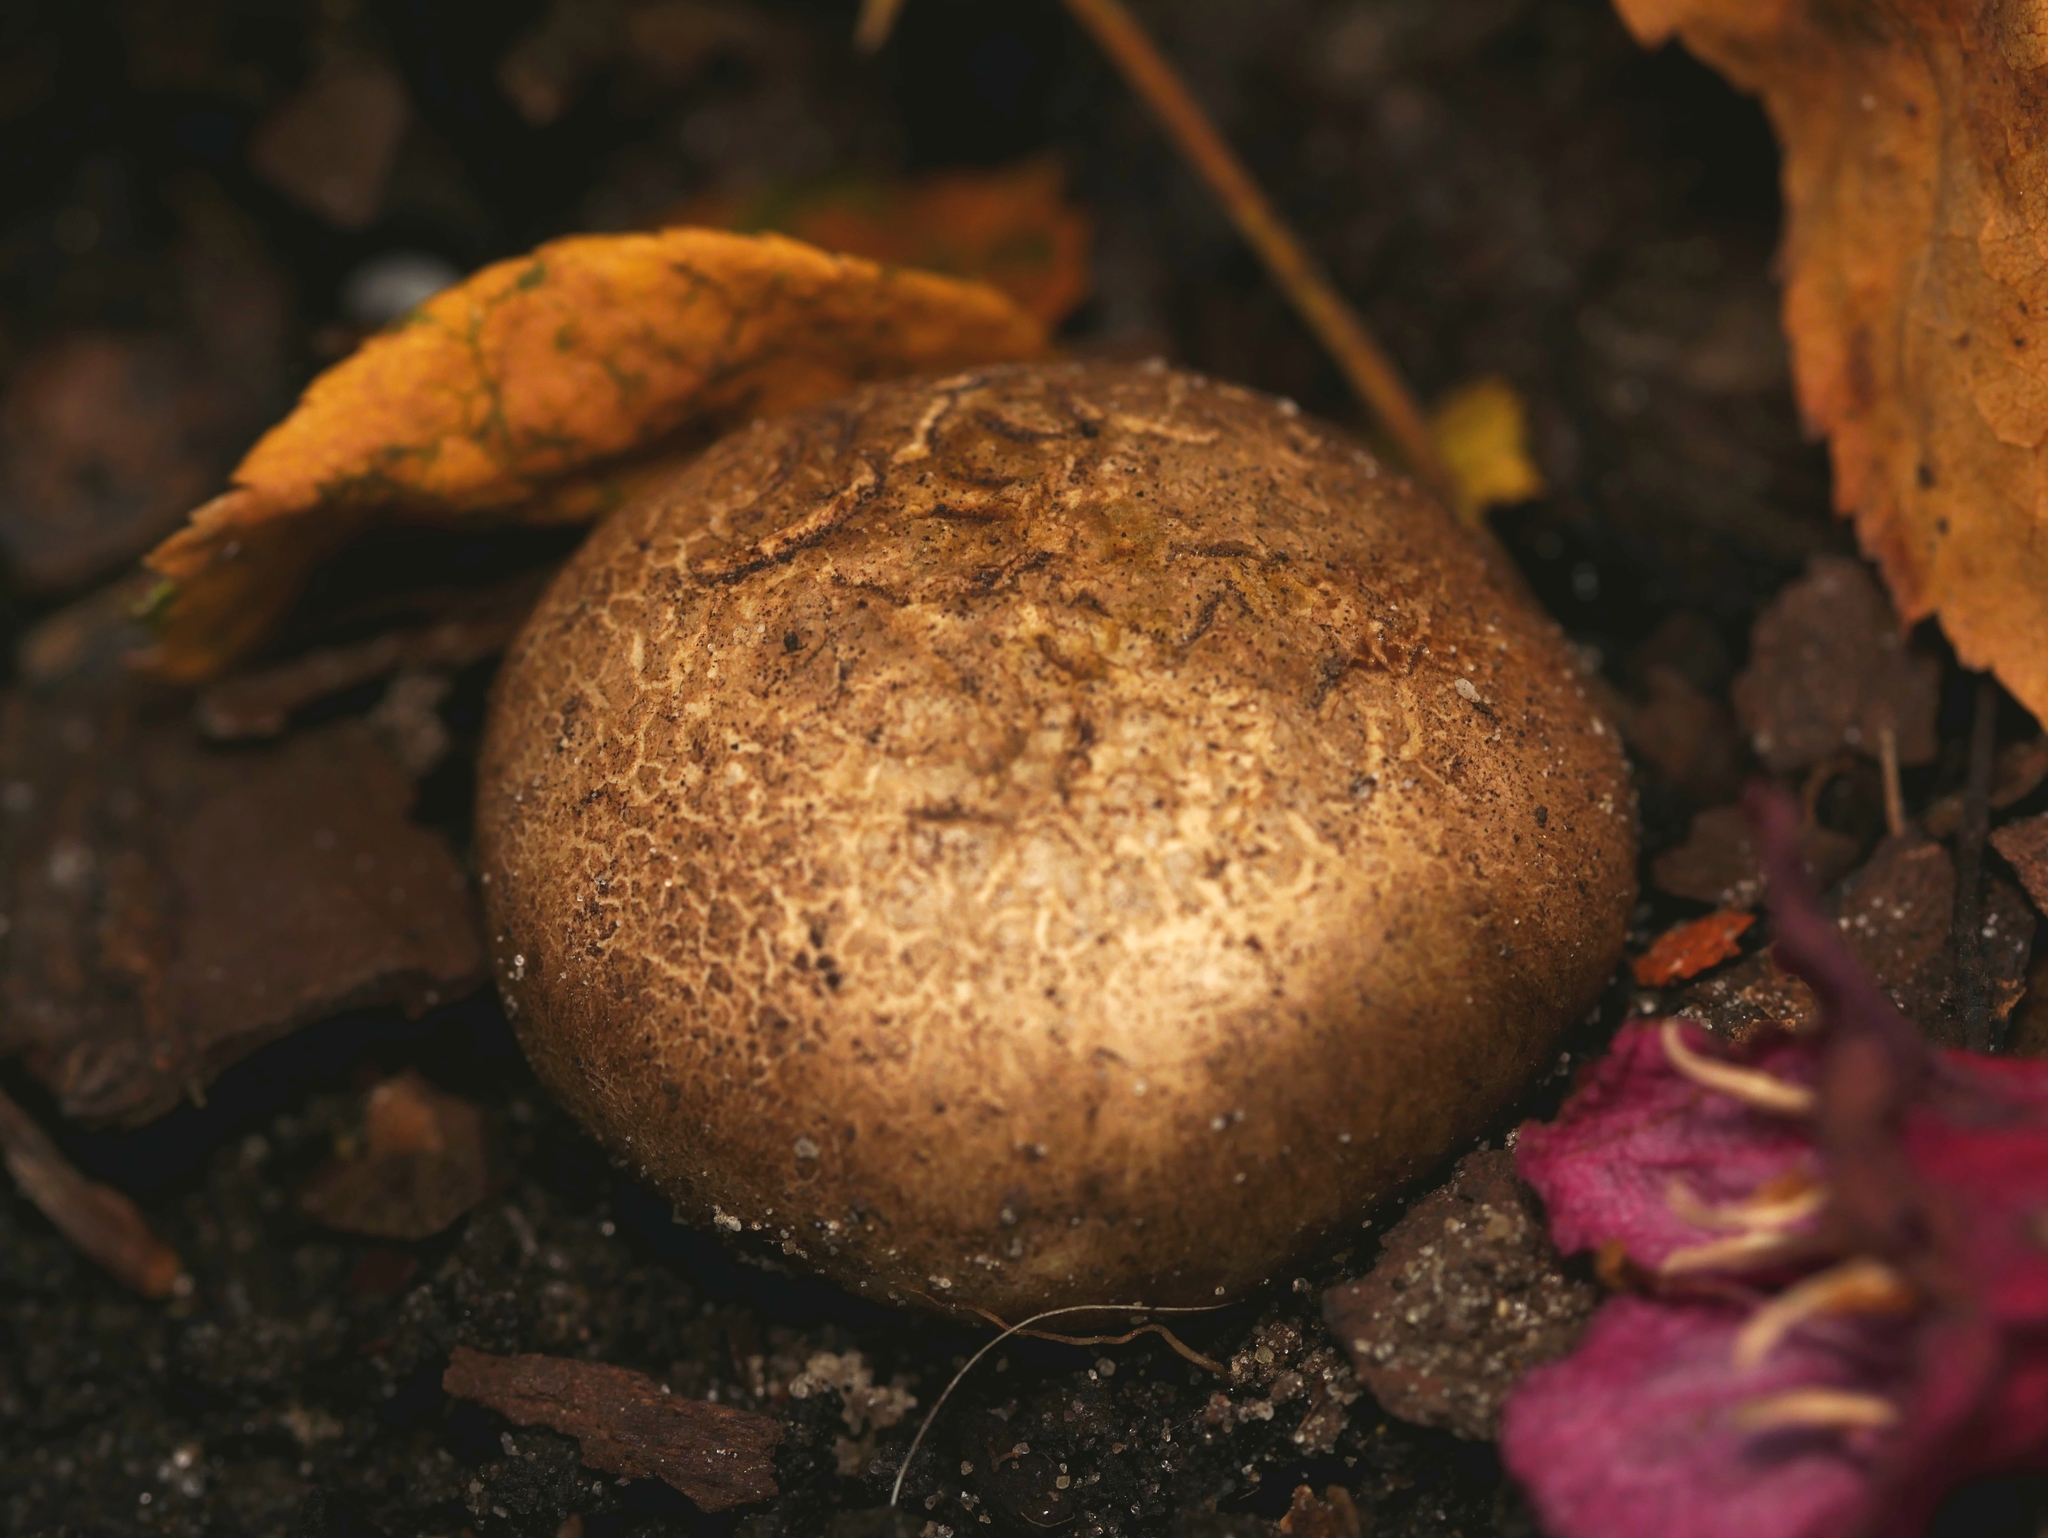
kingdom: Fungi
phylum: Basidiomycota
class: Agaricomycetes
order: Boletales
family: Sclerodermataceae
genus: Scleroderma
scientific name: Scleroderma citrinum
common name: Common earthball
